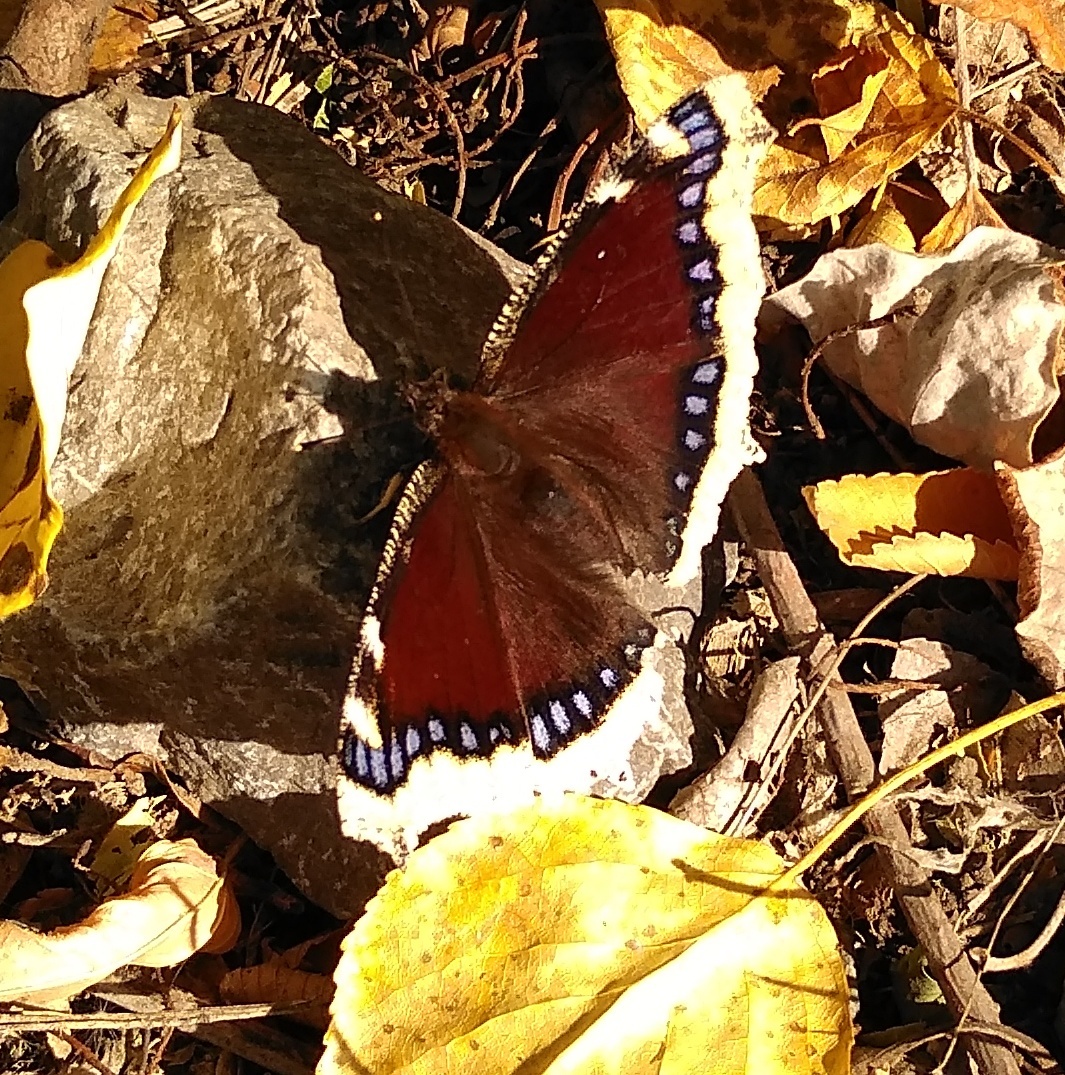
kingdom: Animalia
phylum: Arthropoda
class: Insecta
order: Lepidoptera
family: Nymphalidae
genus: Nymphalis
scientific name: Nymphalis antiopa
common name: Camberwell beauty
